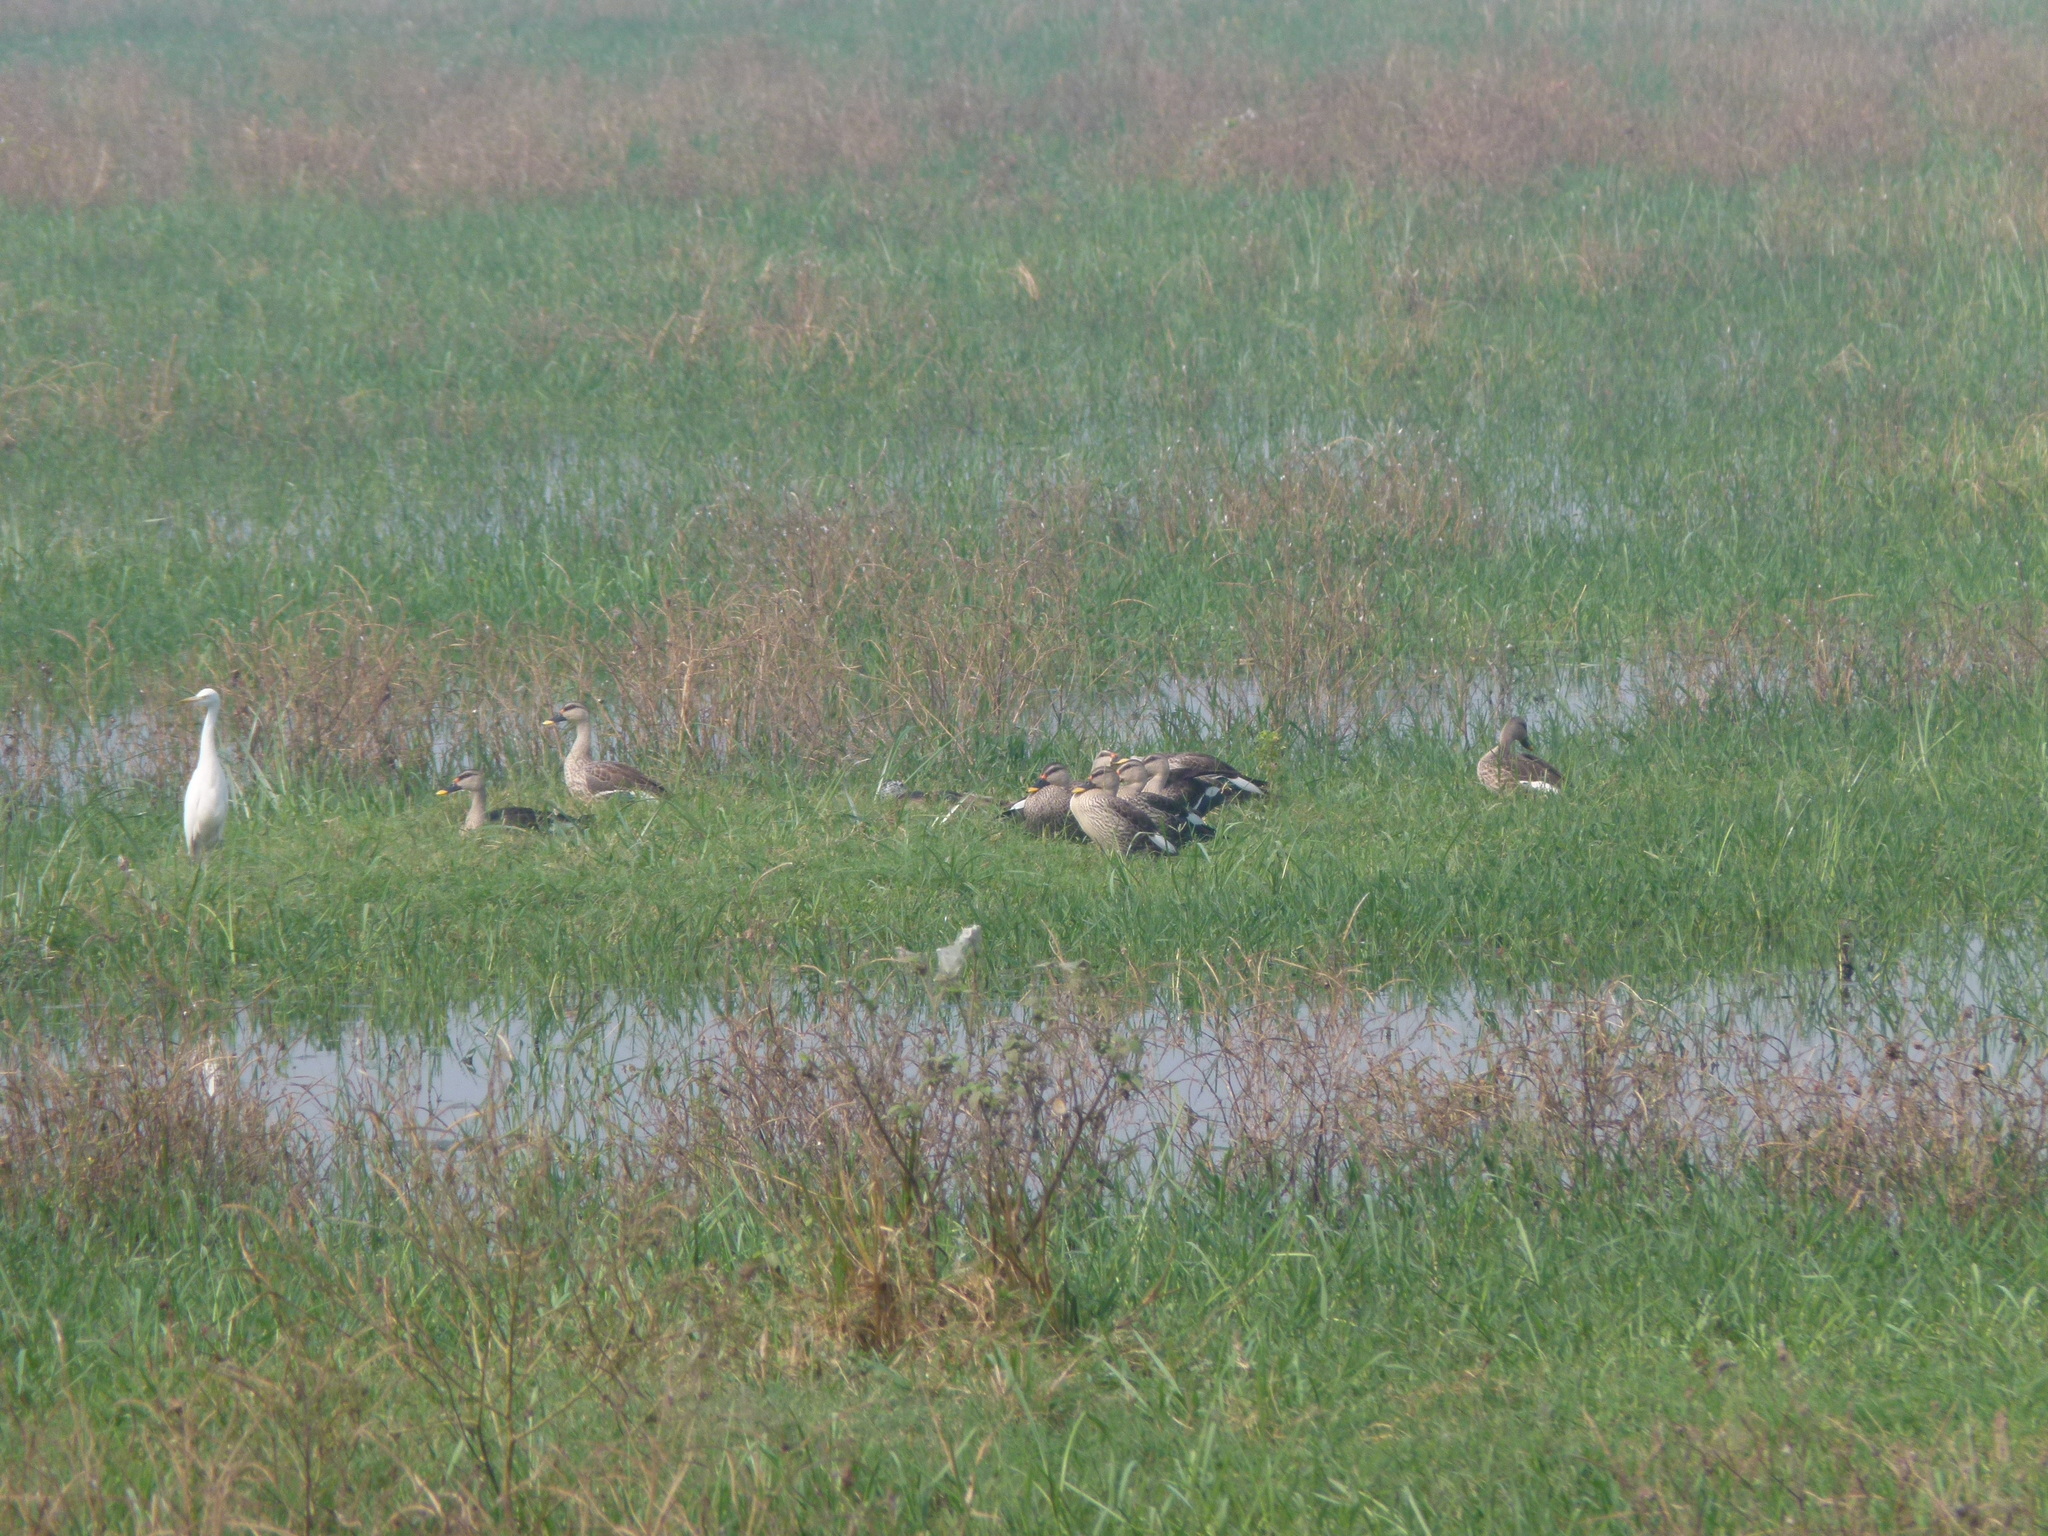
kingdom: Animalia
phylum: Chordata
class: Aves
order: Anseriformes
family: Anatidae
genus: Anas
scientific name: Anas poecilorhyncha
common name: Indian spot-billed duck
